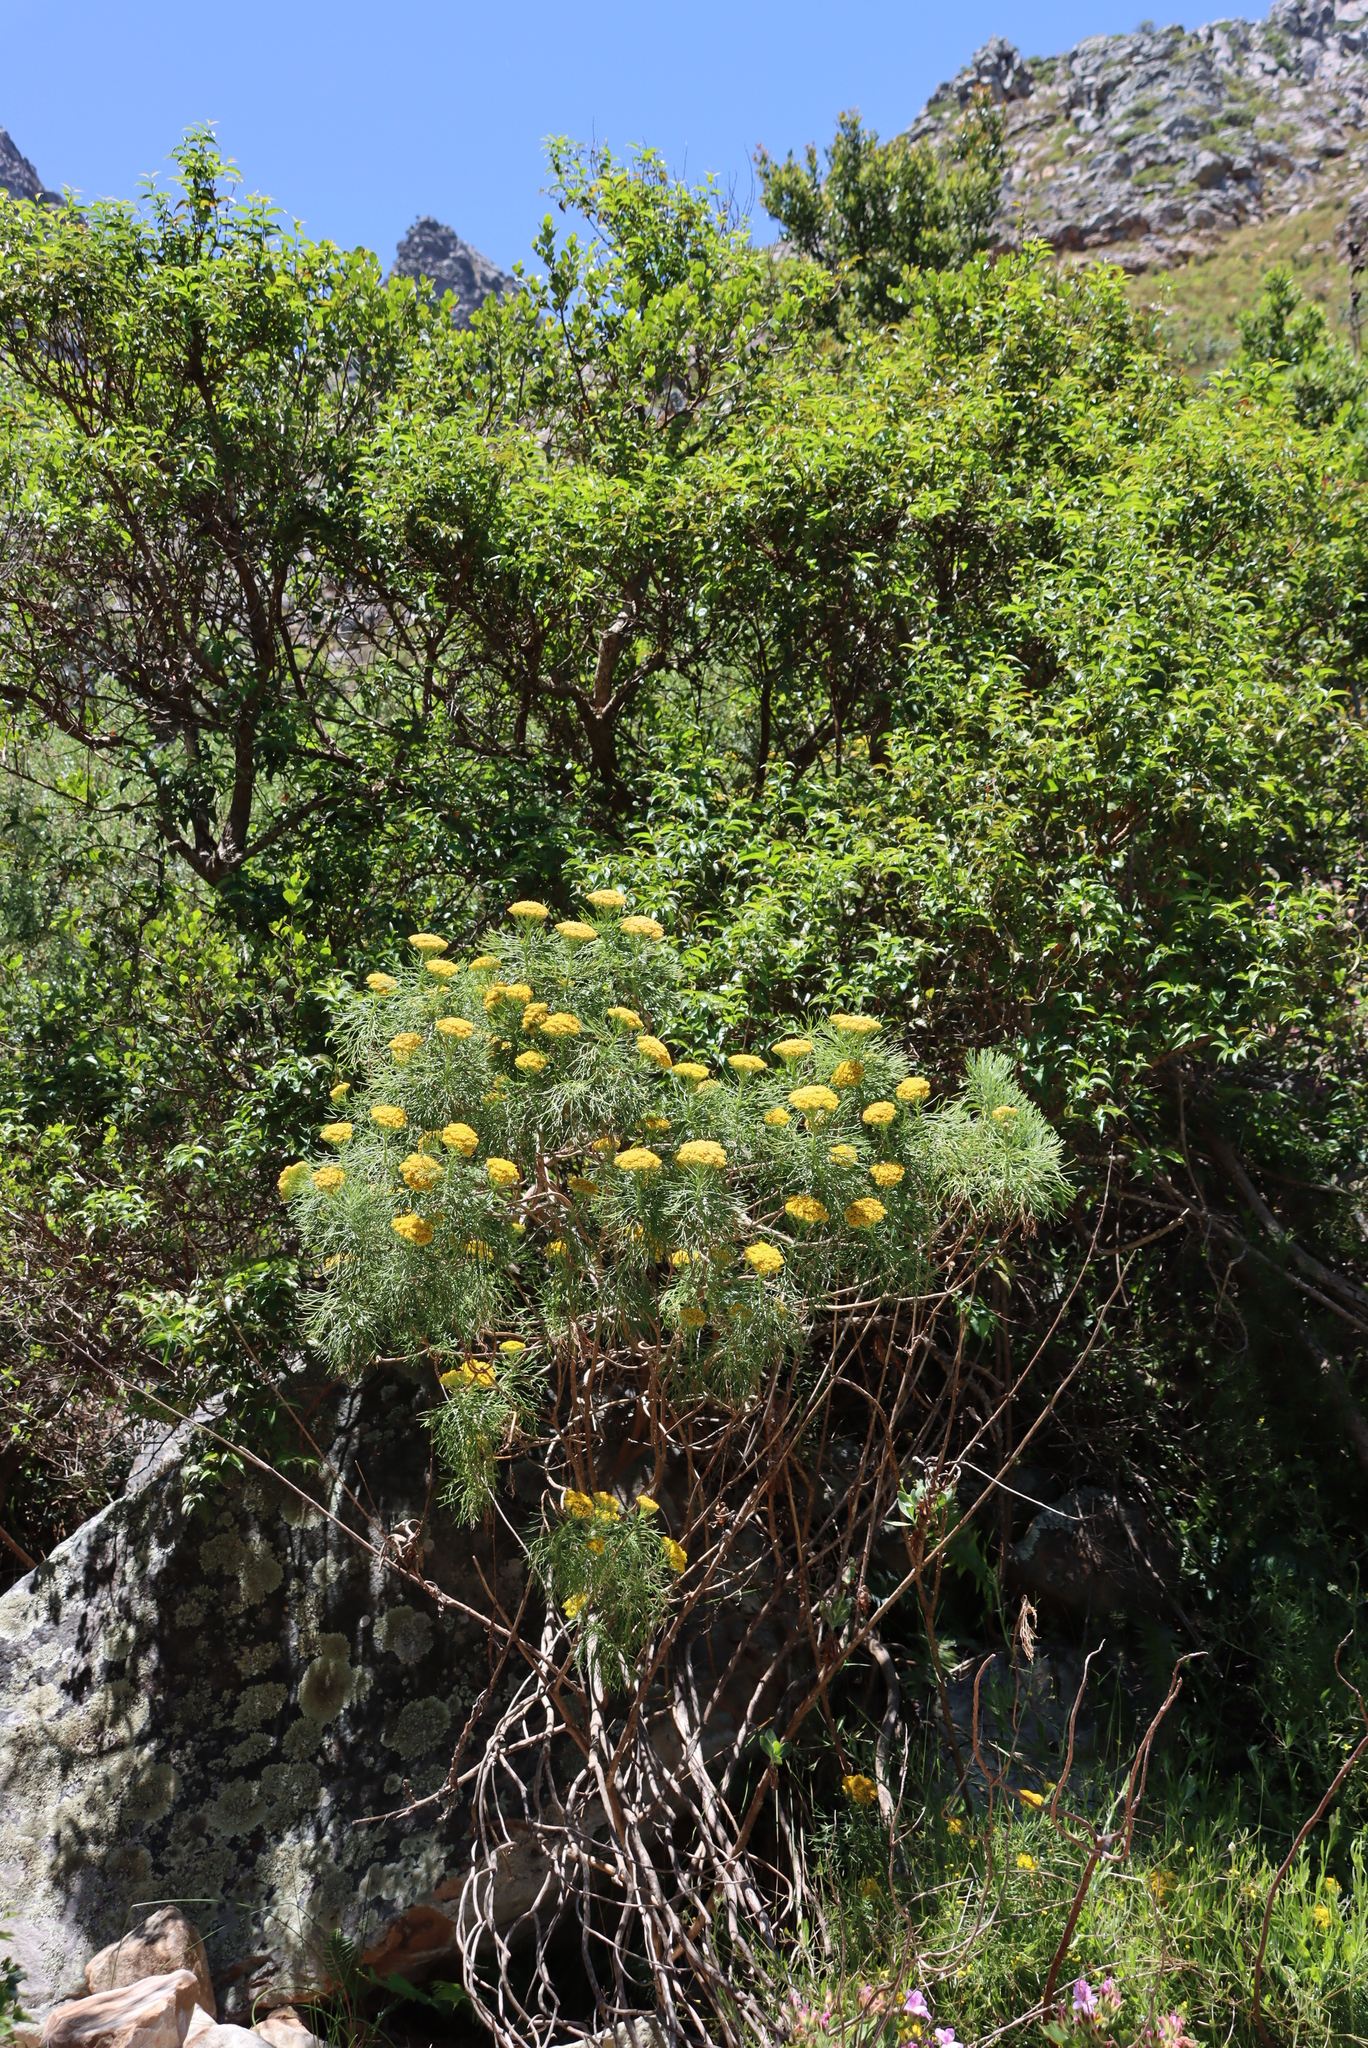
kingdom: Plantae
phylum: Tracheophyta
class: Magnoliopsida
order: Asterales
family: Asteraceae
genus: Hymenolepis
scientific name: Hymenolepis crithmifolia
